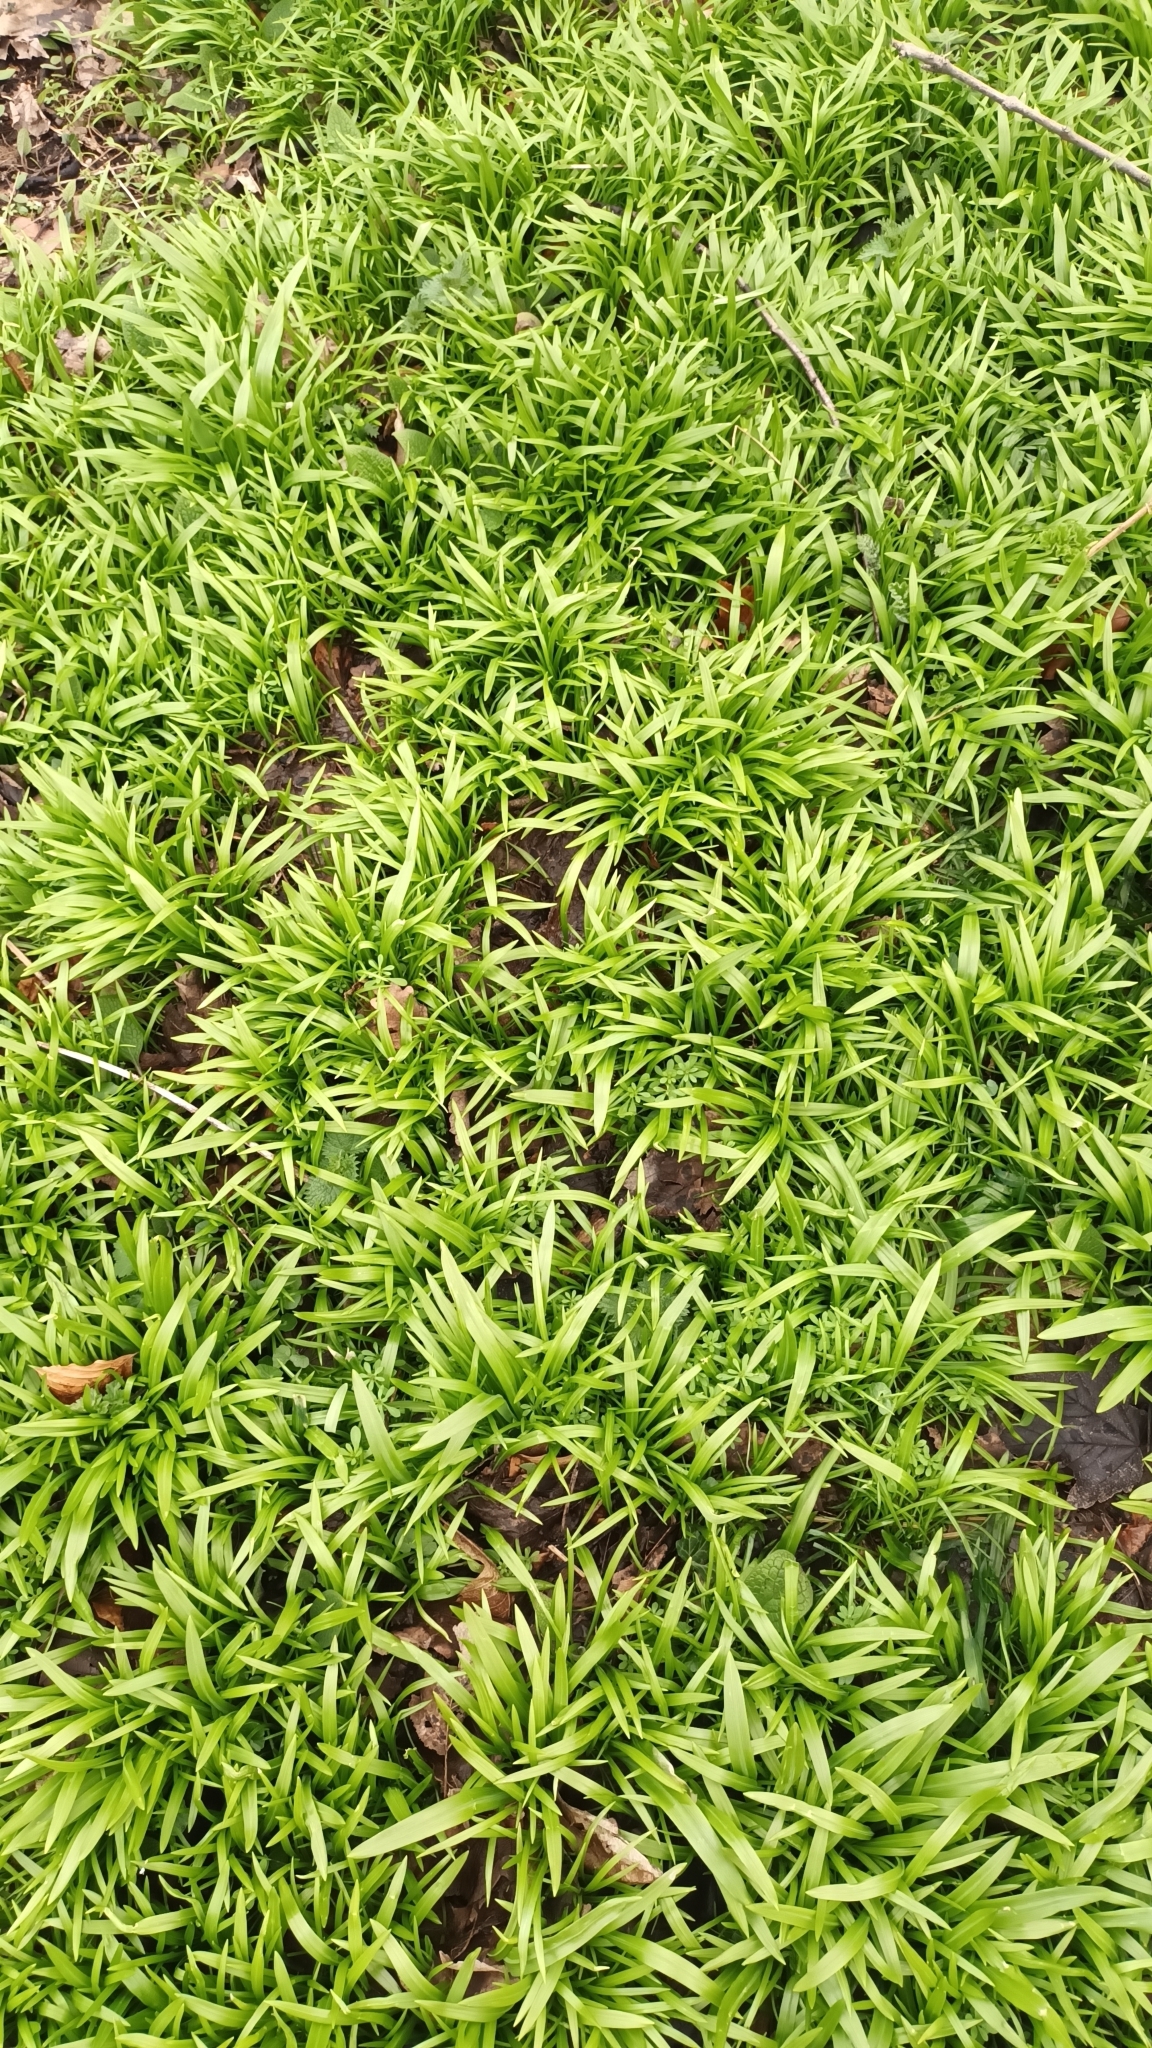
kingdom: Plantae
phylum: Tracheophyta
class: Liliopsida
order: Asparagales
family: Amaryllidaceae
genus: Allium
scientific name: Allium paradoxum
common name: Few-flowered garlic
